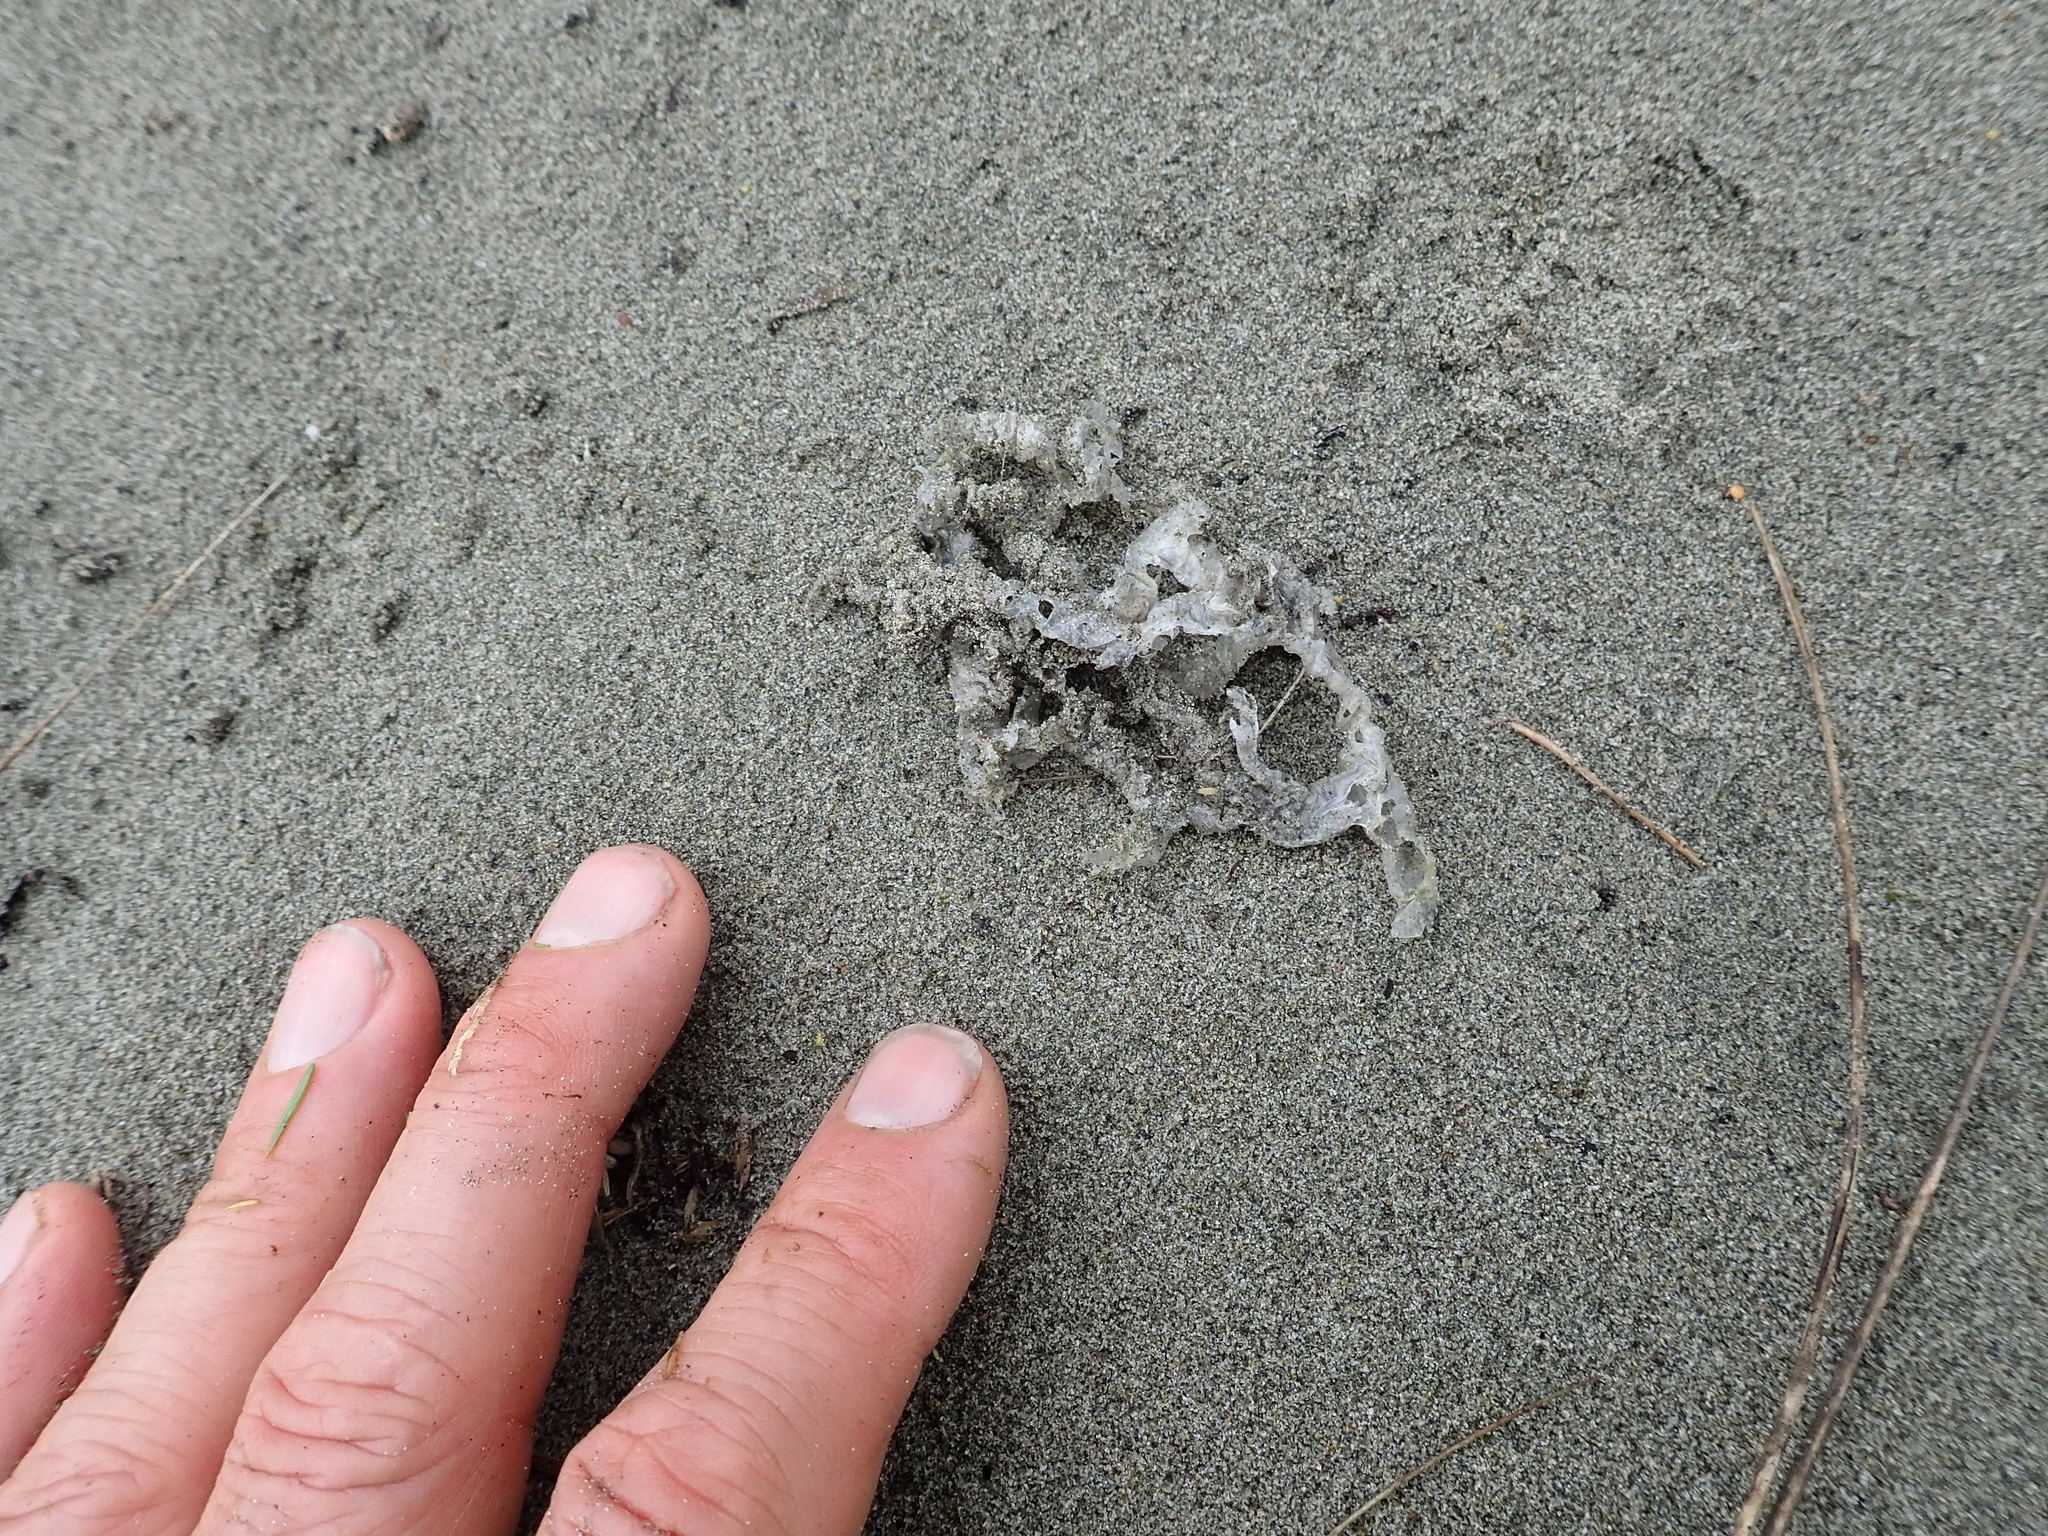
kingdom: Fungi
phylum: Basidiomycota
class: Agaricomycetes
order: Phallales
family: Phallaceae
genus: Ileodictyon
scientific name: Ileodictyon cibarium
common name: Basket fungus
